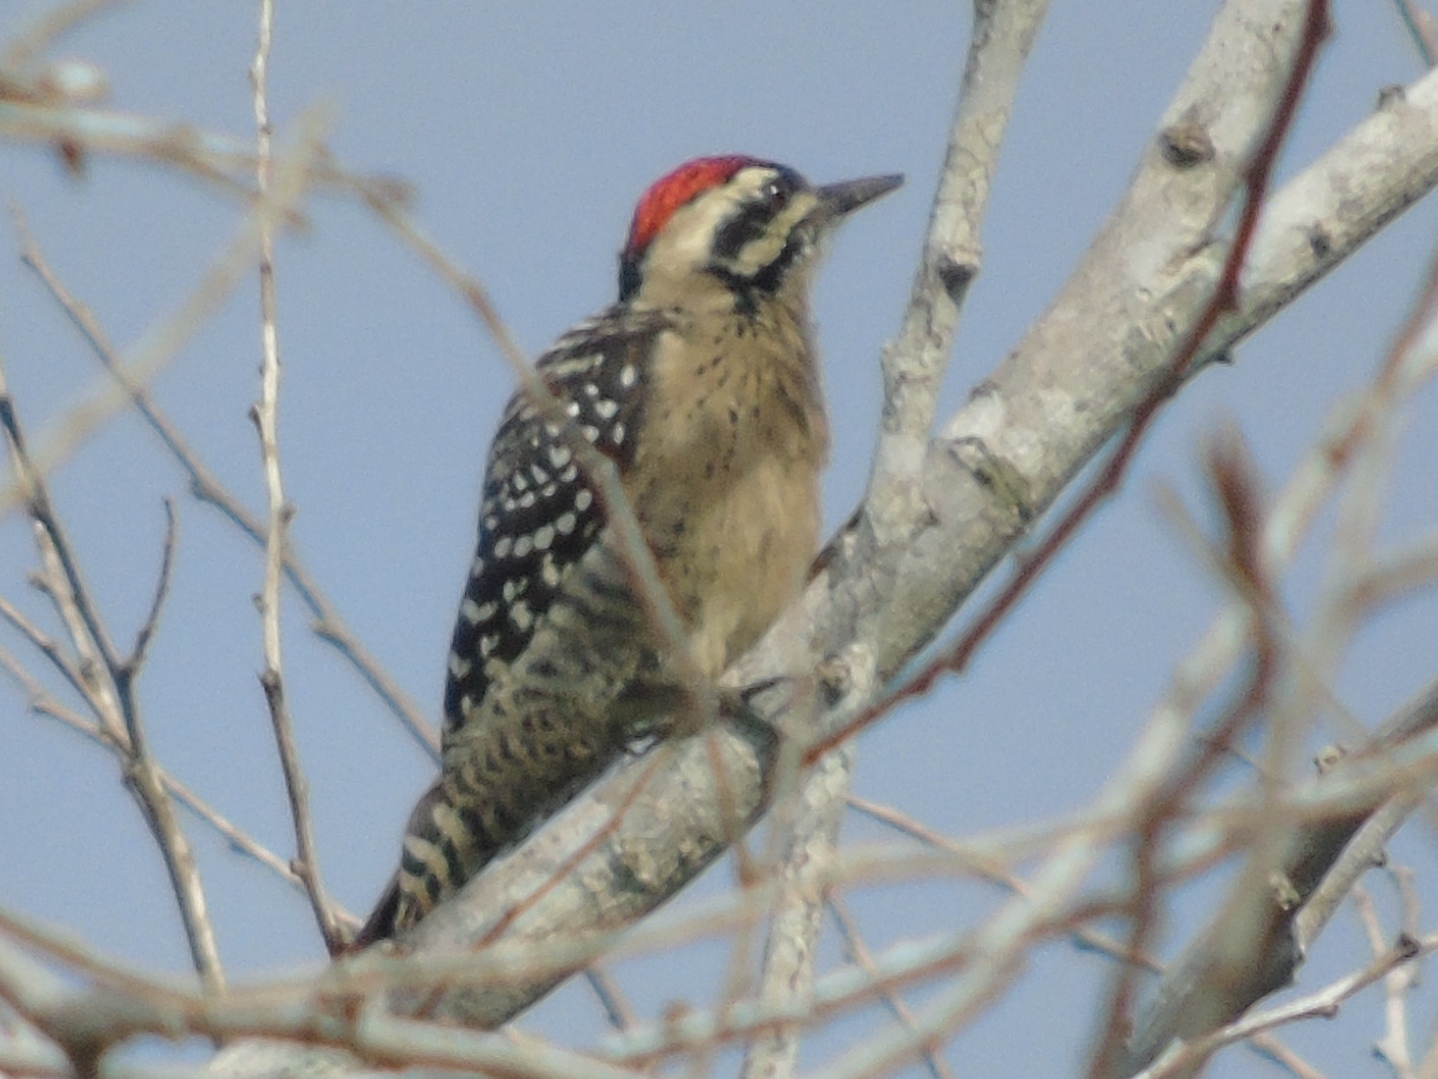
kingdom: Animalia
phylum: Chordata
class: Aves
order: Piciformes
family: Picidae
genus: Dryobates
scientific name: Dryobates scalaris
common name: Ladder-backed woodpecker
